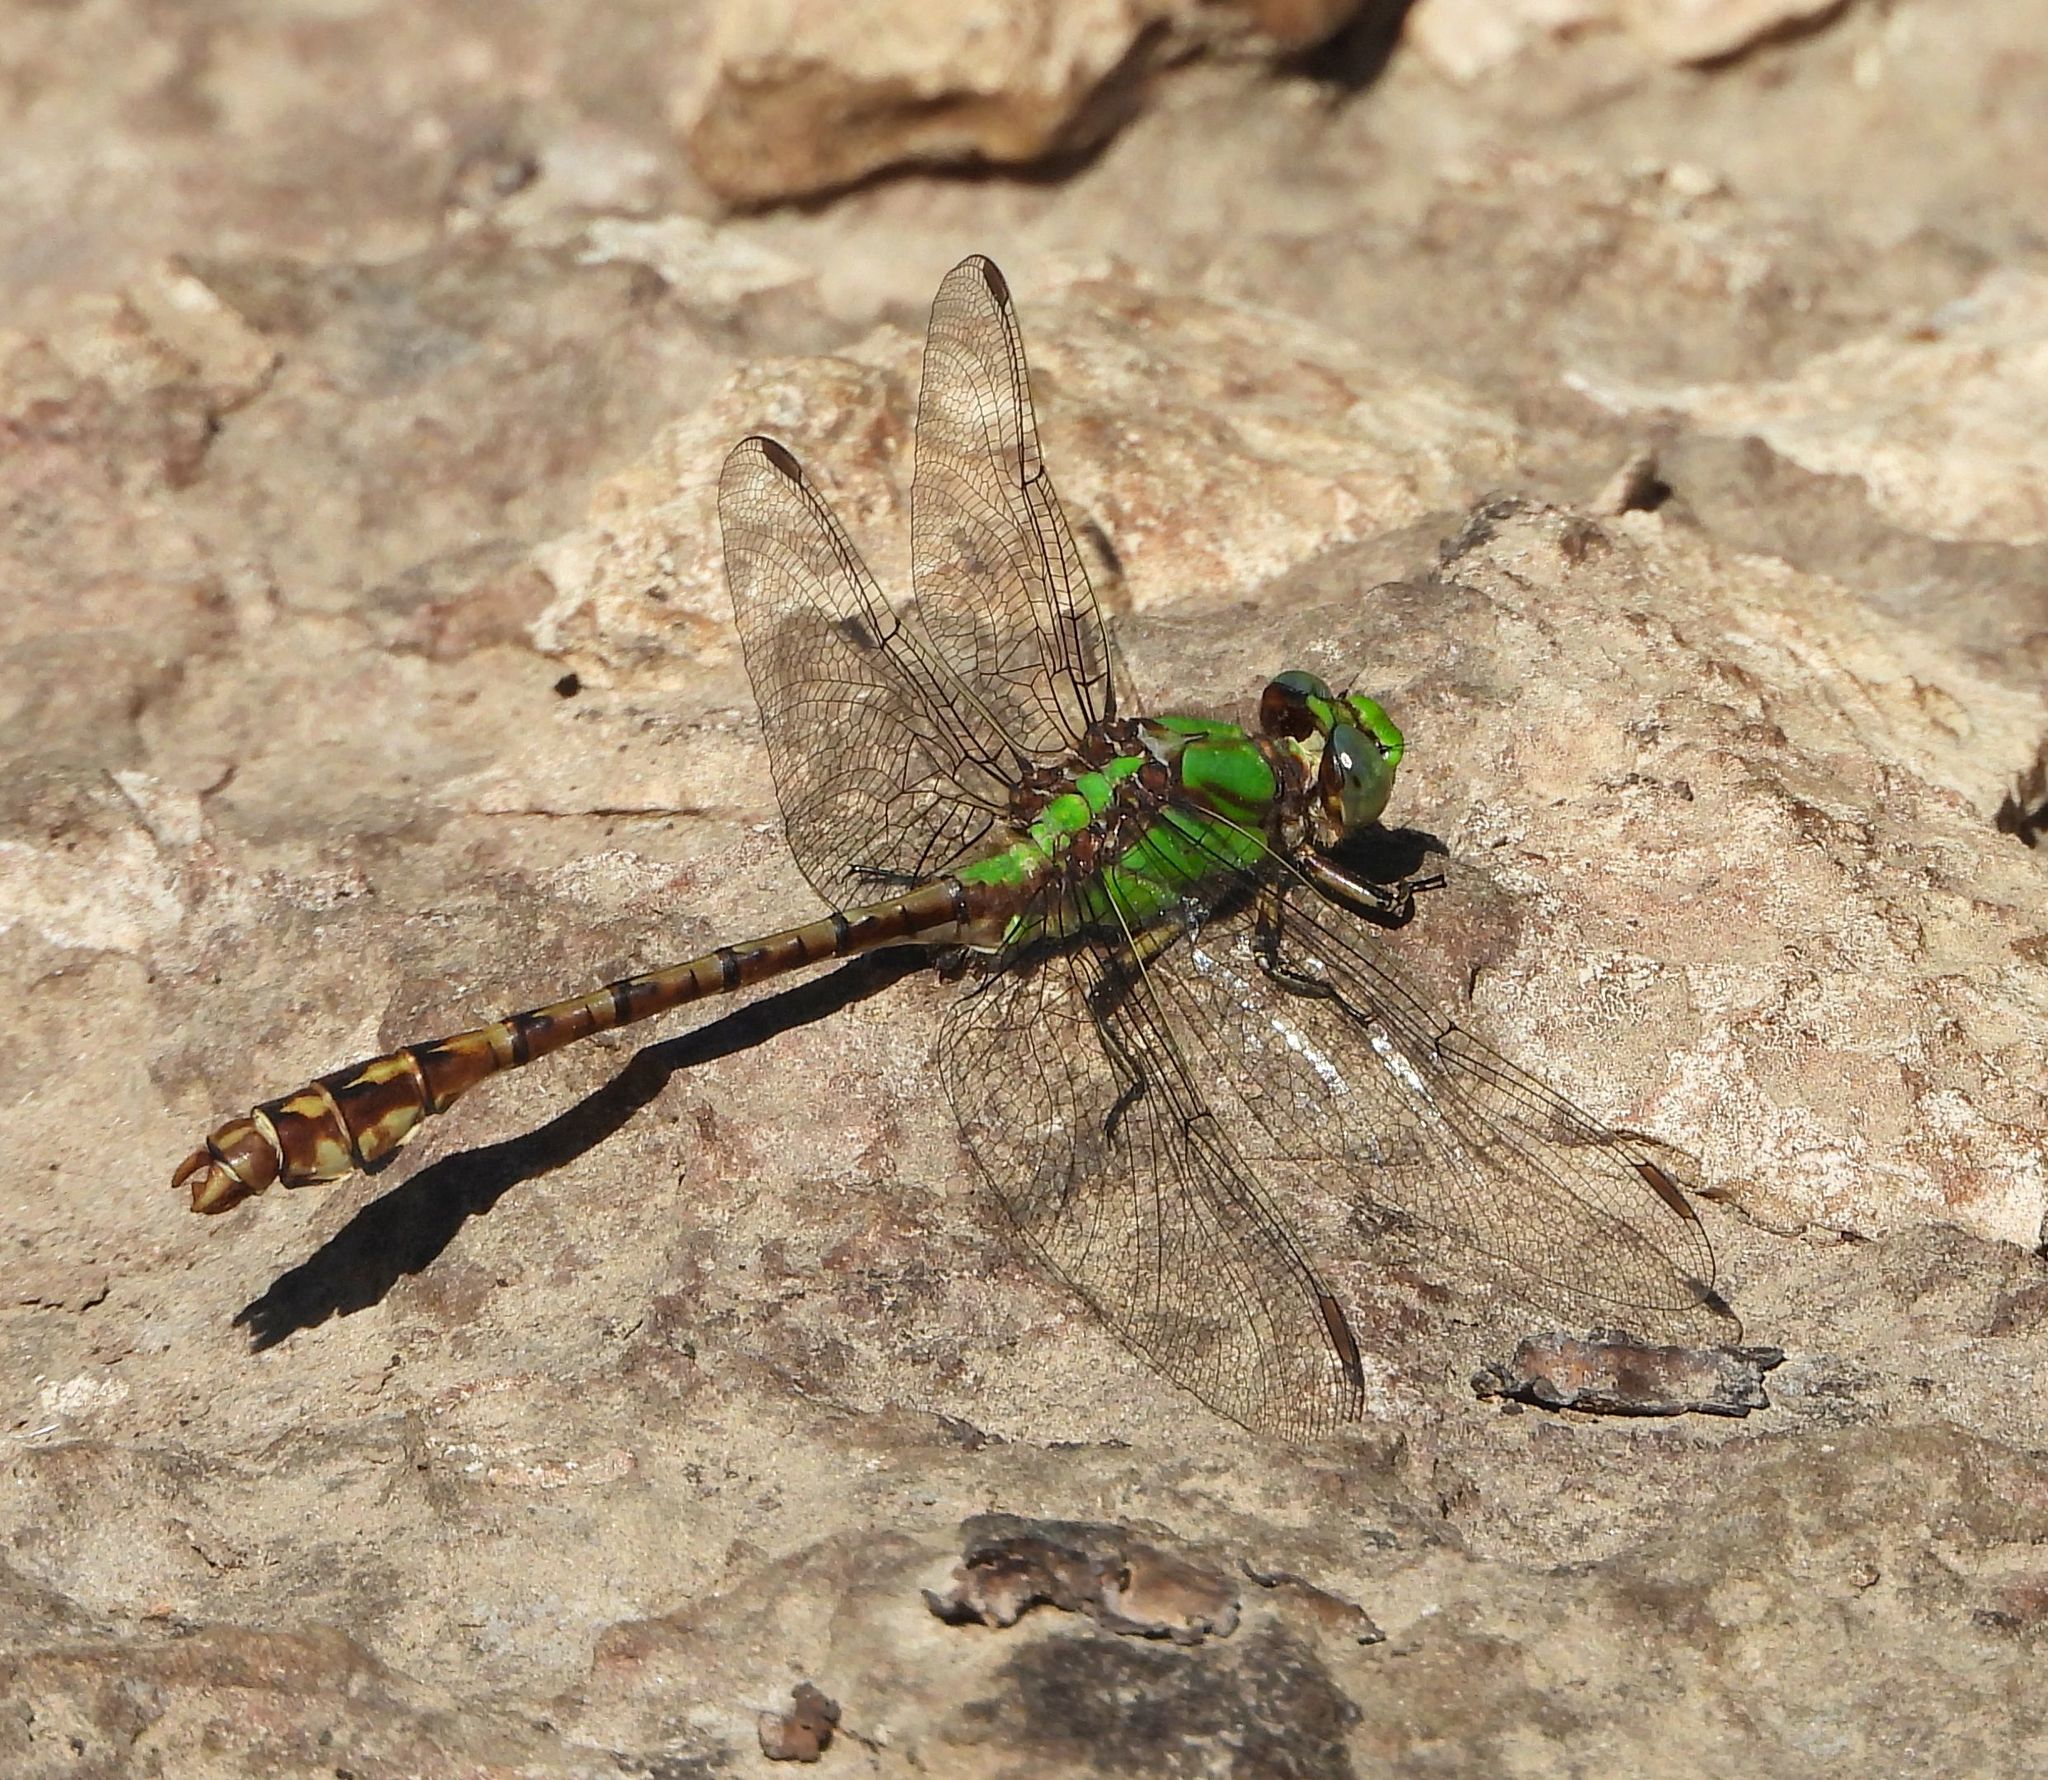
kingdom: Animalia
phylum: Arthropoda
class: Insecta
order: Odonata
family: Gomphidae
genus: Ophiogomphus
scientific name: Ophiogomphus rupinsulensis
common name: Rusty snaketail
